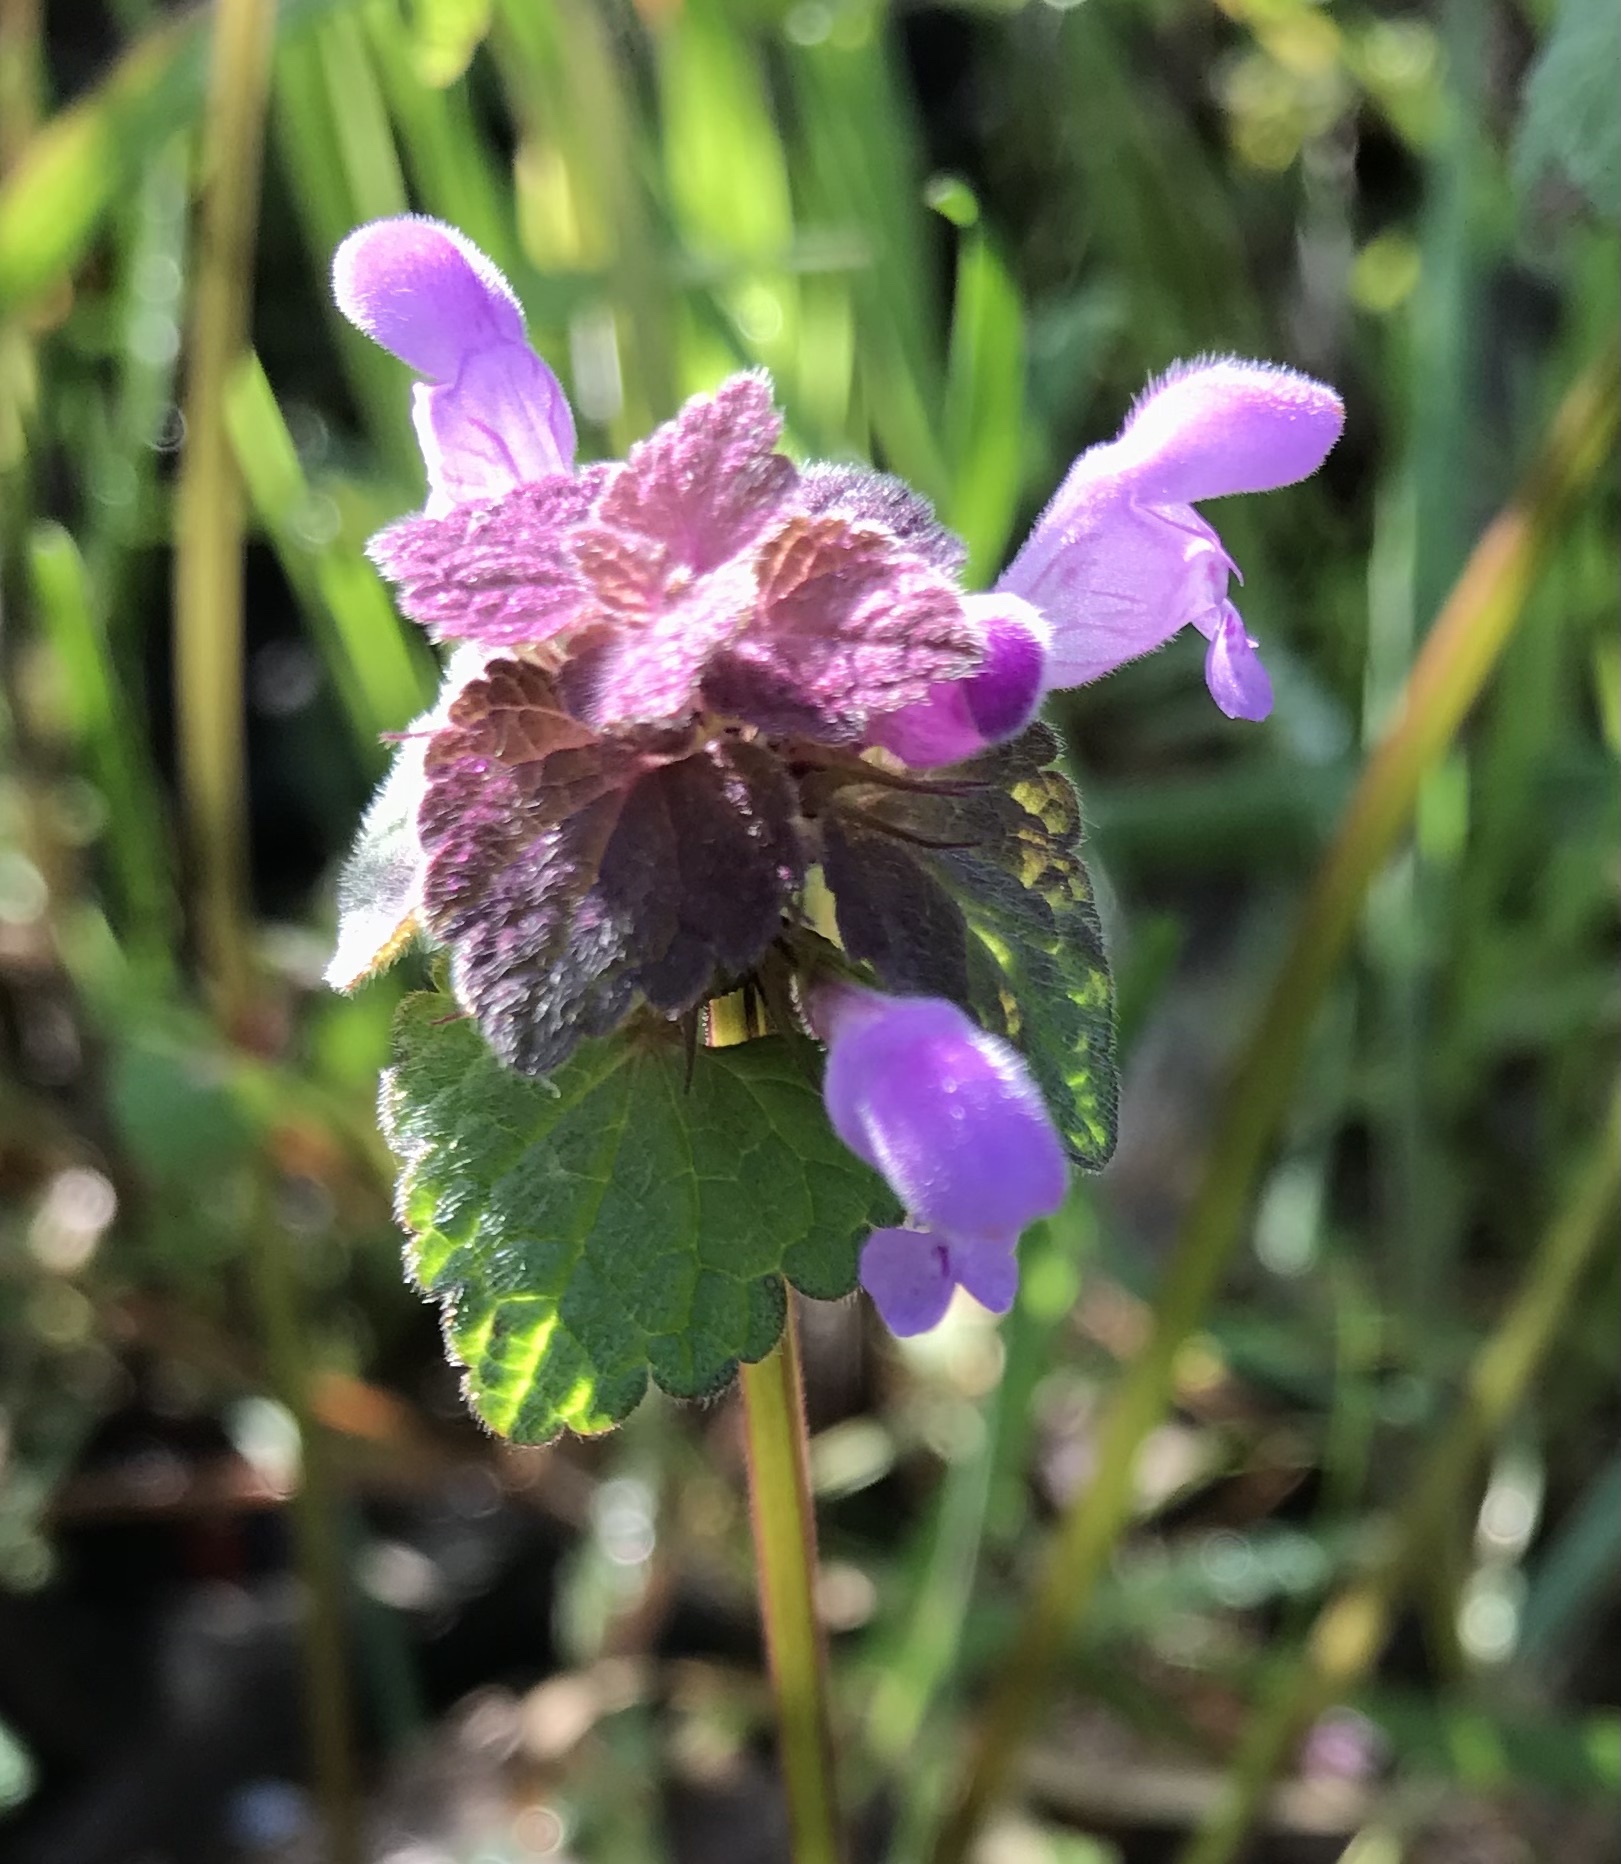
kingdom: Plantae
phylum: Tracheophyta
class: Magnoliopsida
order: Lamiales
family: Lamiaceae
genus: Lamium
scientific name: Lamium purpureum
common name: Red dead-nettle
